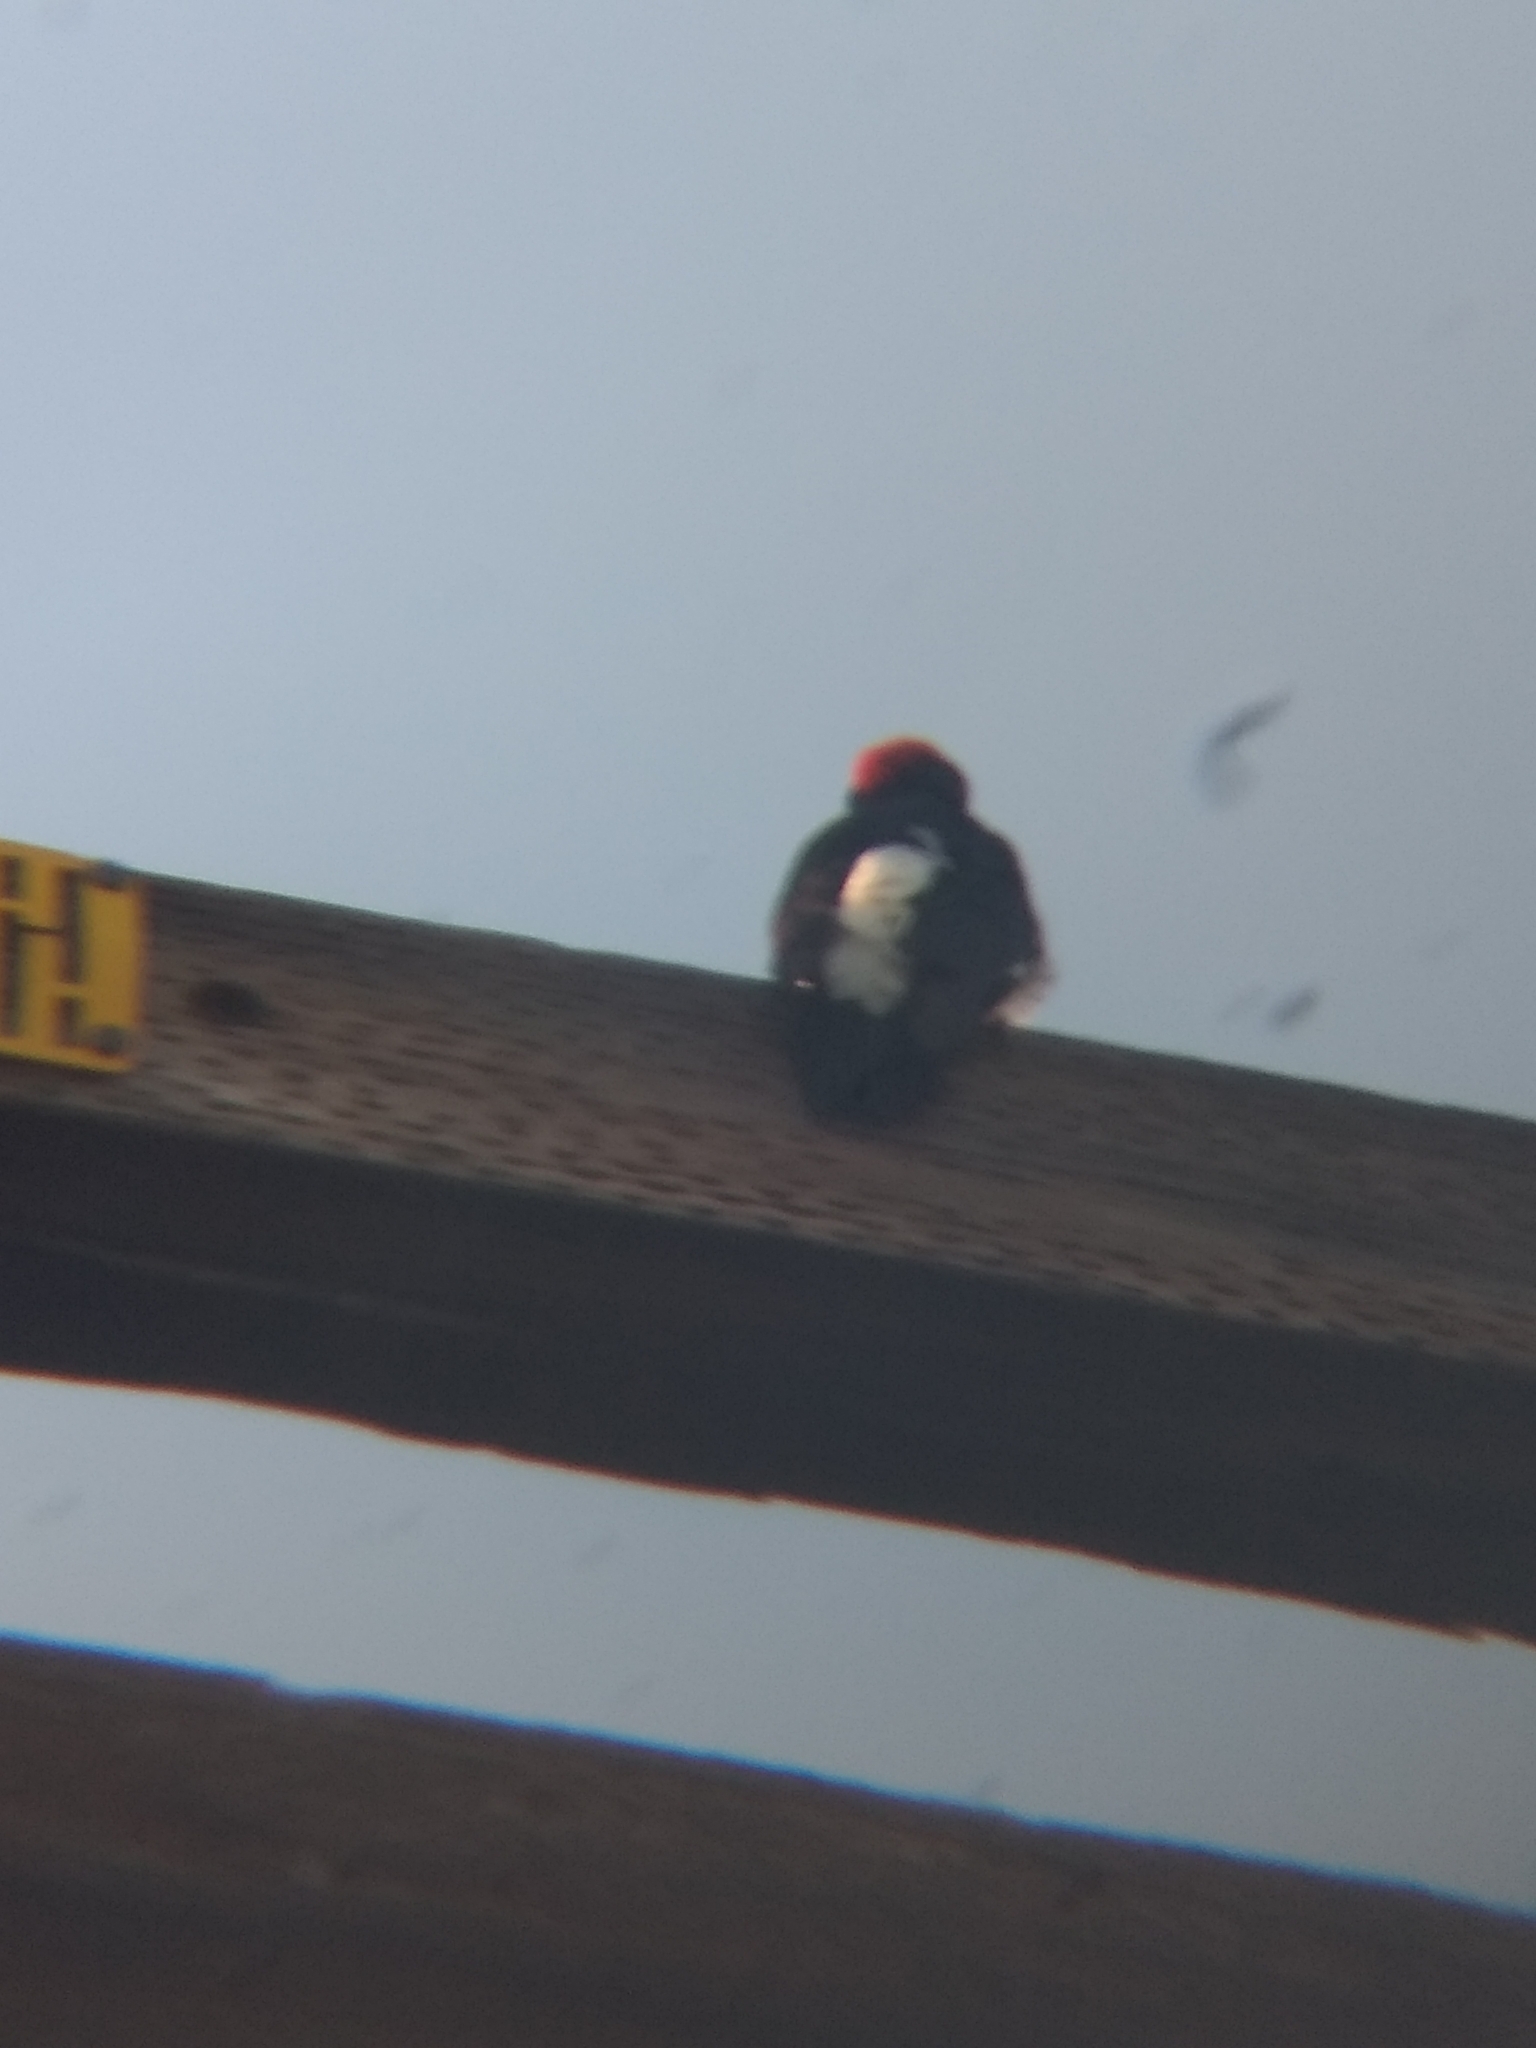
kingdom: Animalia
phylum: Chordata
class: Aves
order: Piciformes
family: Picidae
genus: Melanerpes
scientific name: Melanerpes formicivorus
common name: Acorn woodpecker
